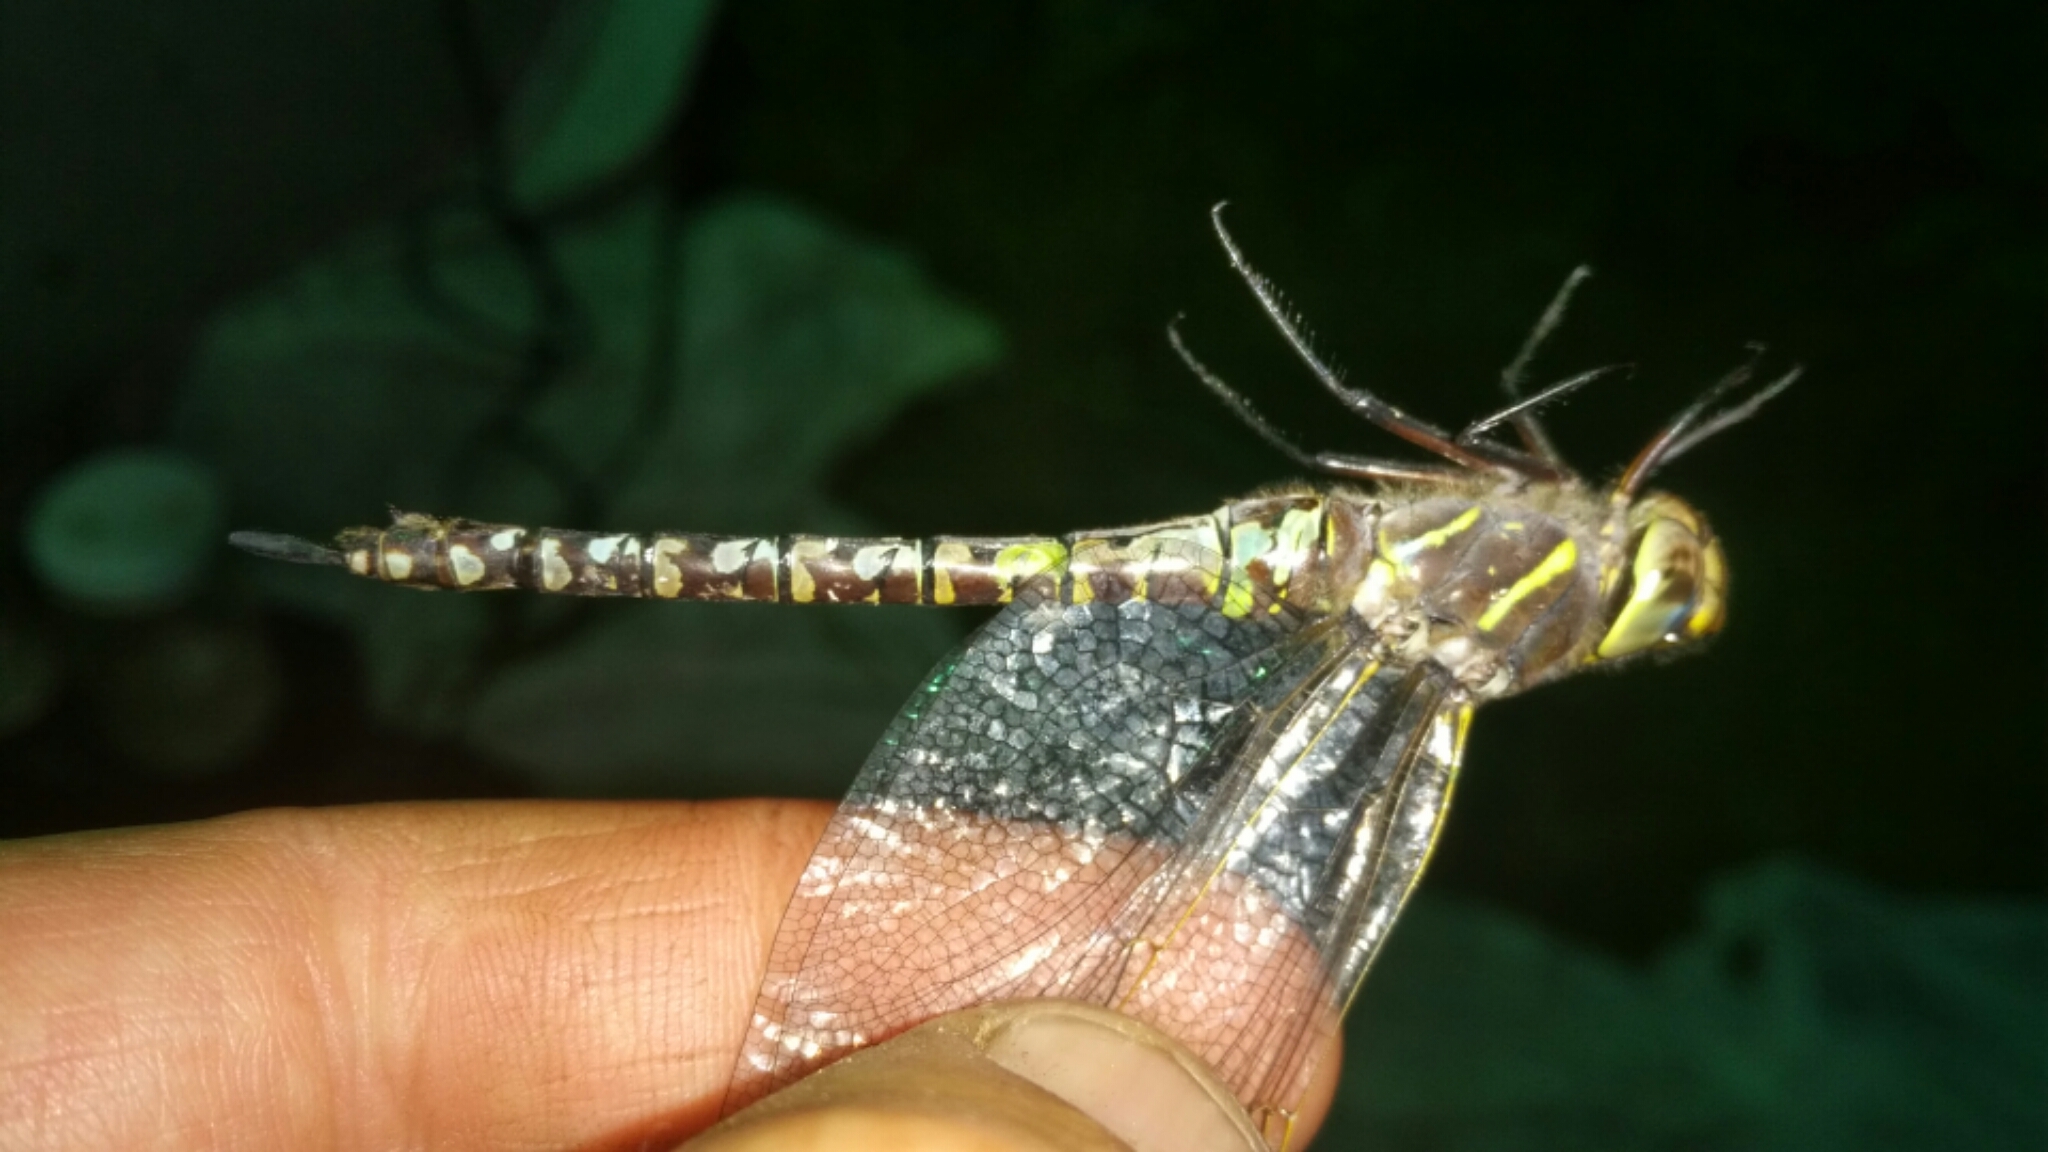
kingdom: Animalia
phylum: Arthropoda
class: Insecta
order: Odonata
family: Aeshnidae
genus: Aeshna
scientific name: Aeshna interrupta
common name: Variable darner
